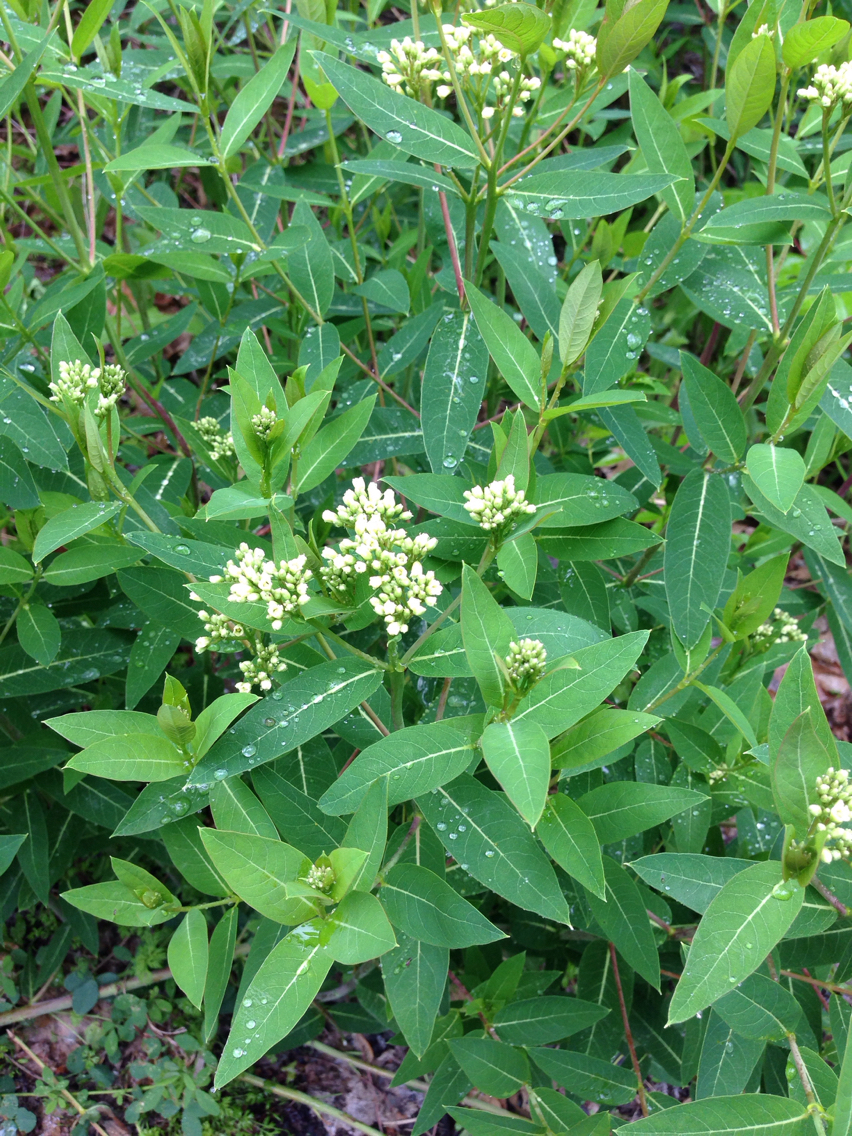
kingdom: Plantae
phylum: Tracheophyta
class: Magnoliopsida
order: Gentianales
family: Apocynaceae
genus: Apocynum
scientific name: Apocynum cannabinum
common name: Hemp dogbane
